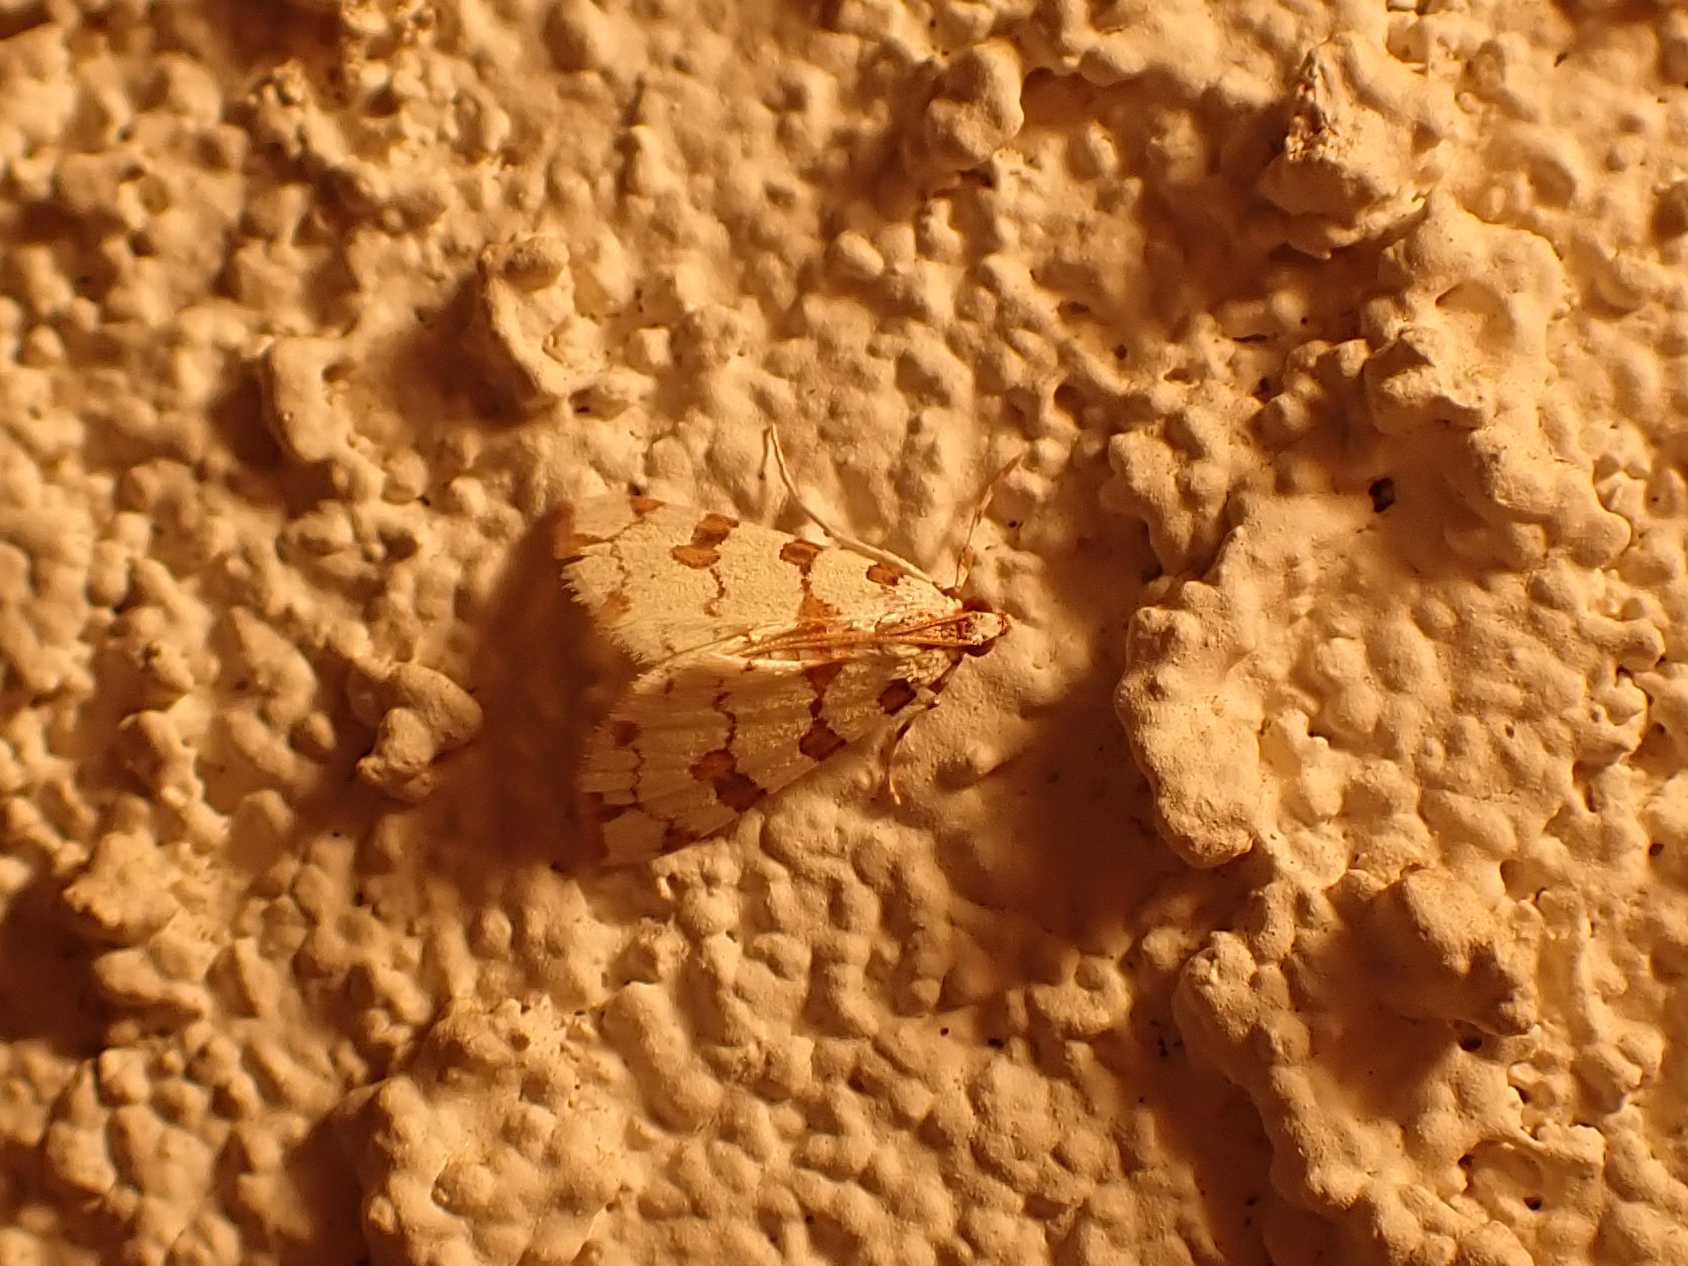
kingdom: Animalia
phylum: Arthropoda
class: Insecta
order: Lepidoptera
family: Crambidae
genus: Conchylodes
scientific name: Conchylodes
